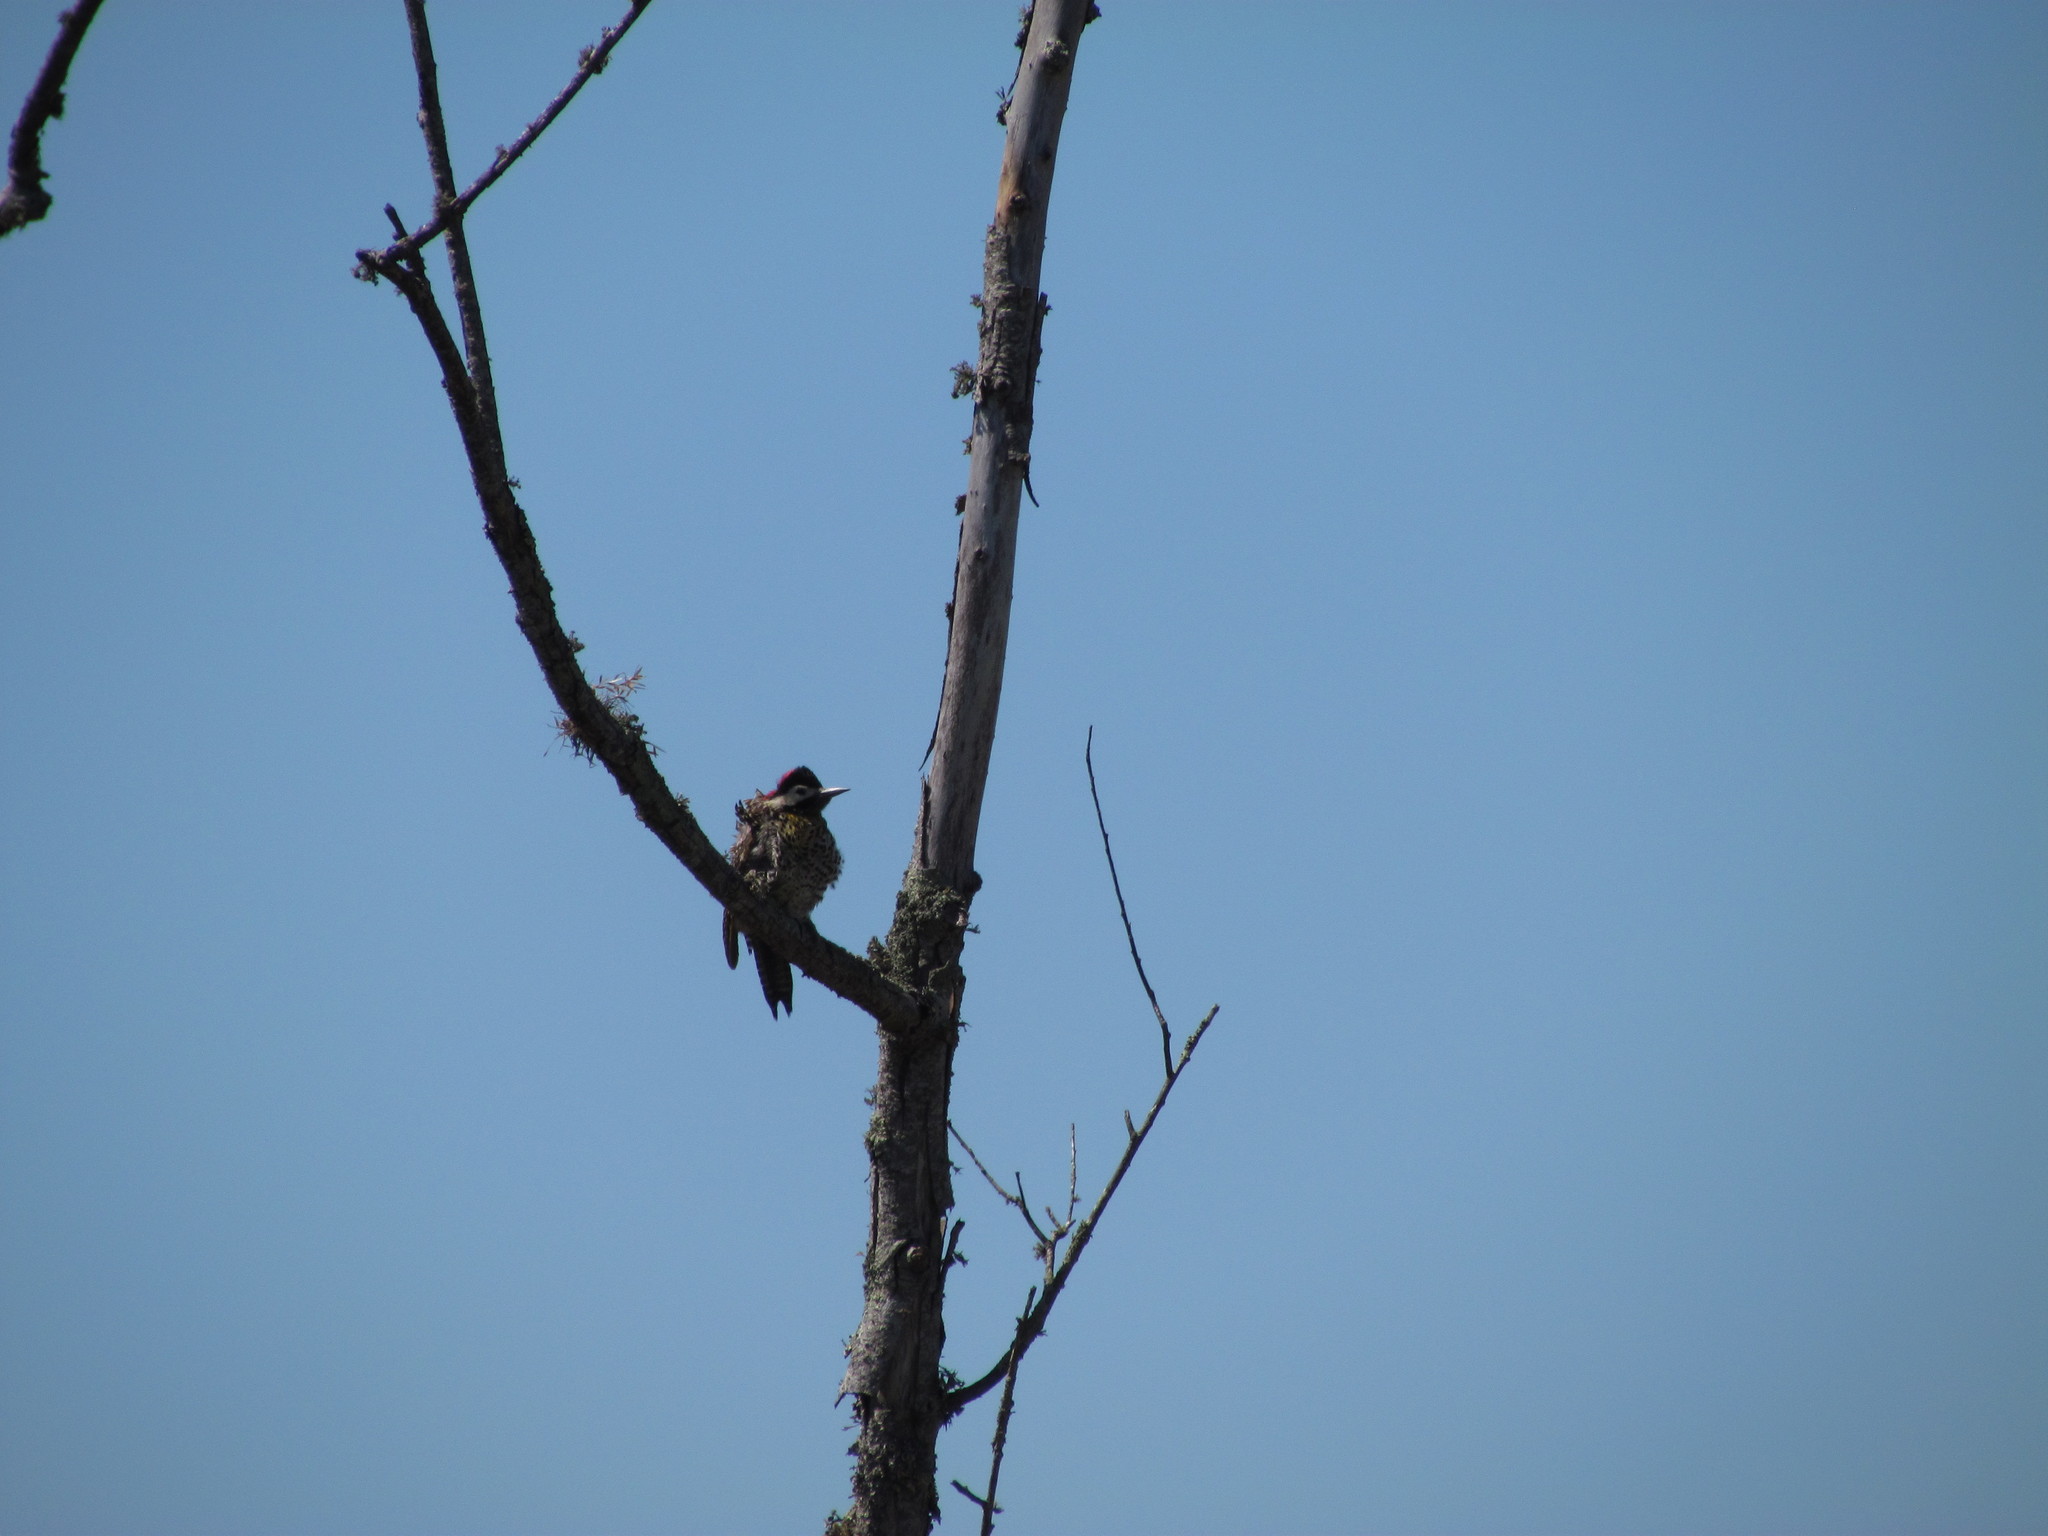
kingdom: Animalia
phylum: Chordata
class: Aves
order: Piciformes
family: Picidae
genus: Colaptes
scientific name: Colaptes melanochloros
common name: Green-barred woodpecker
